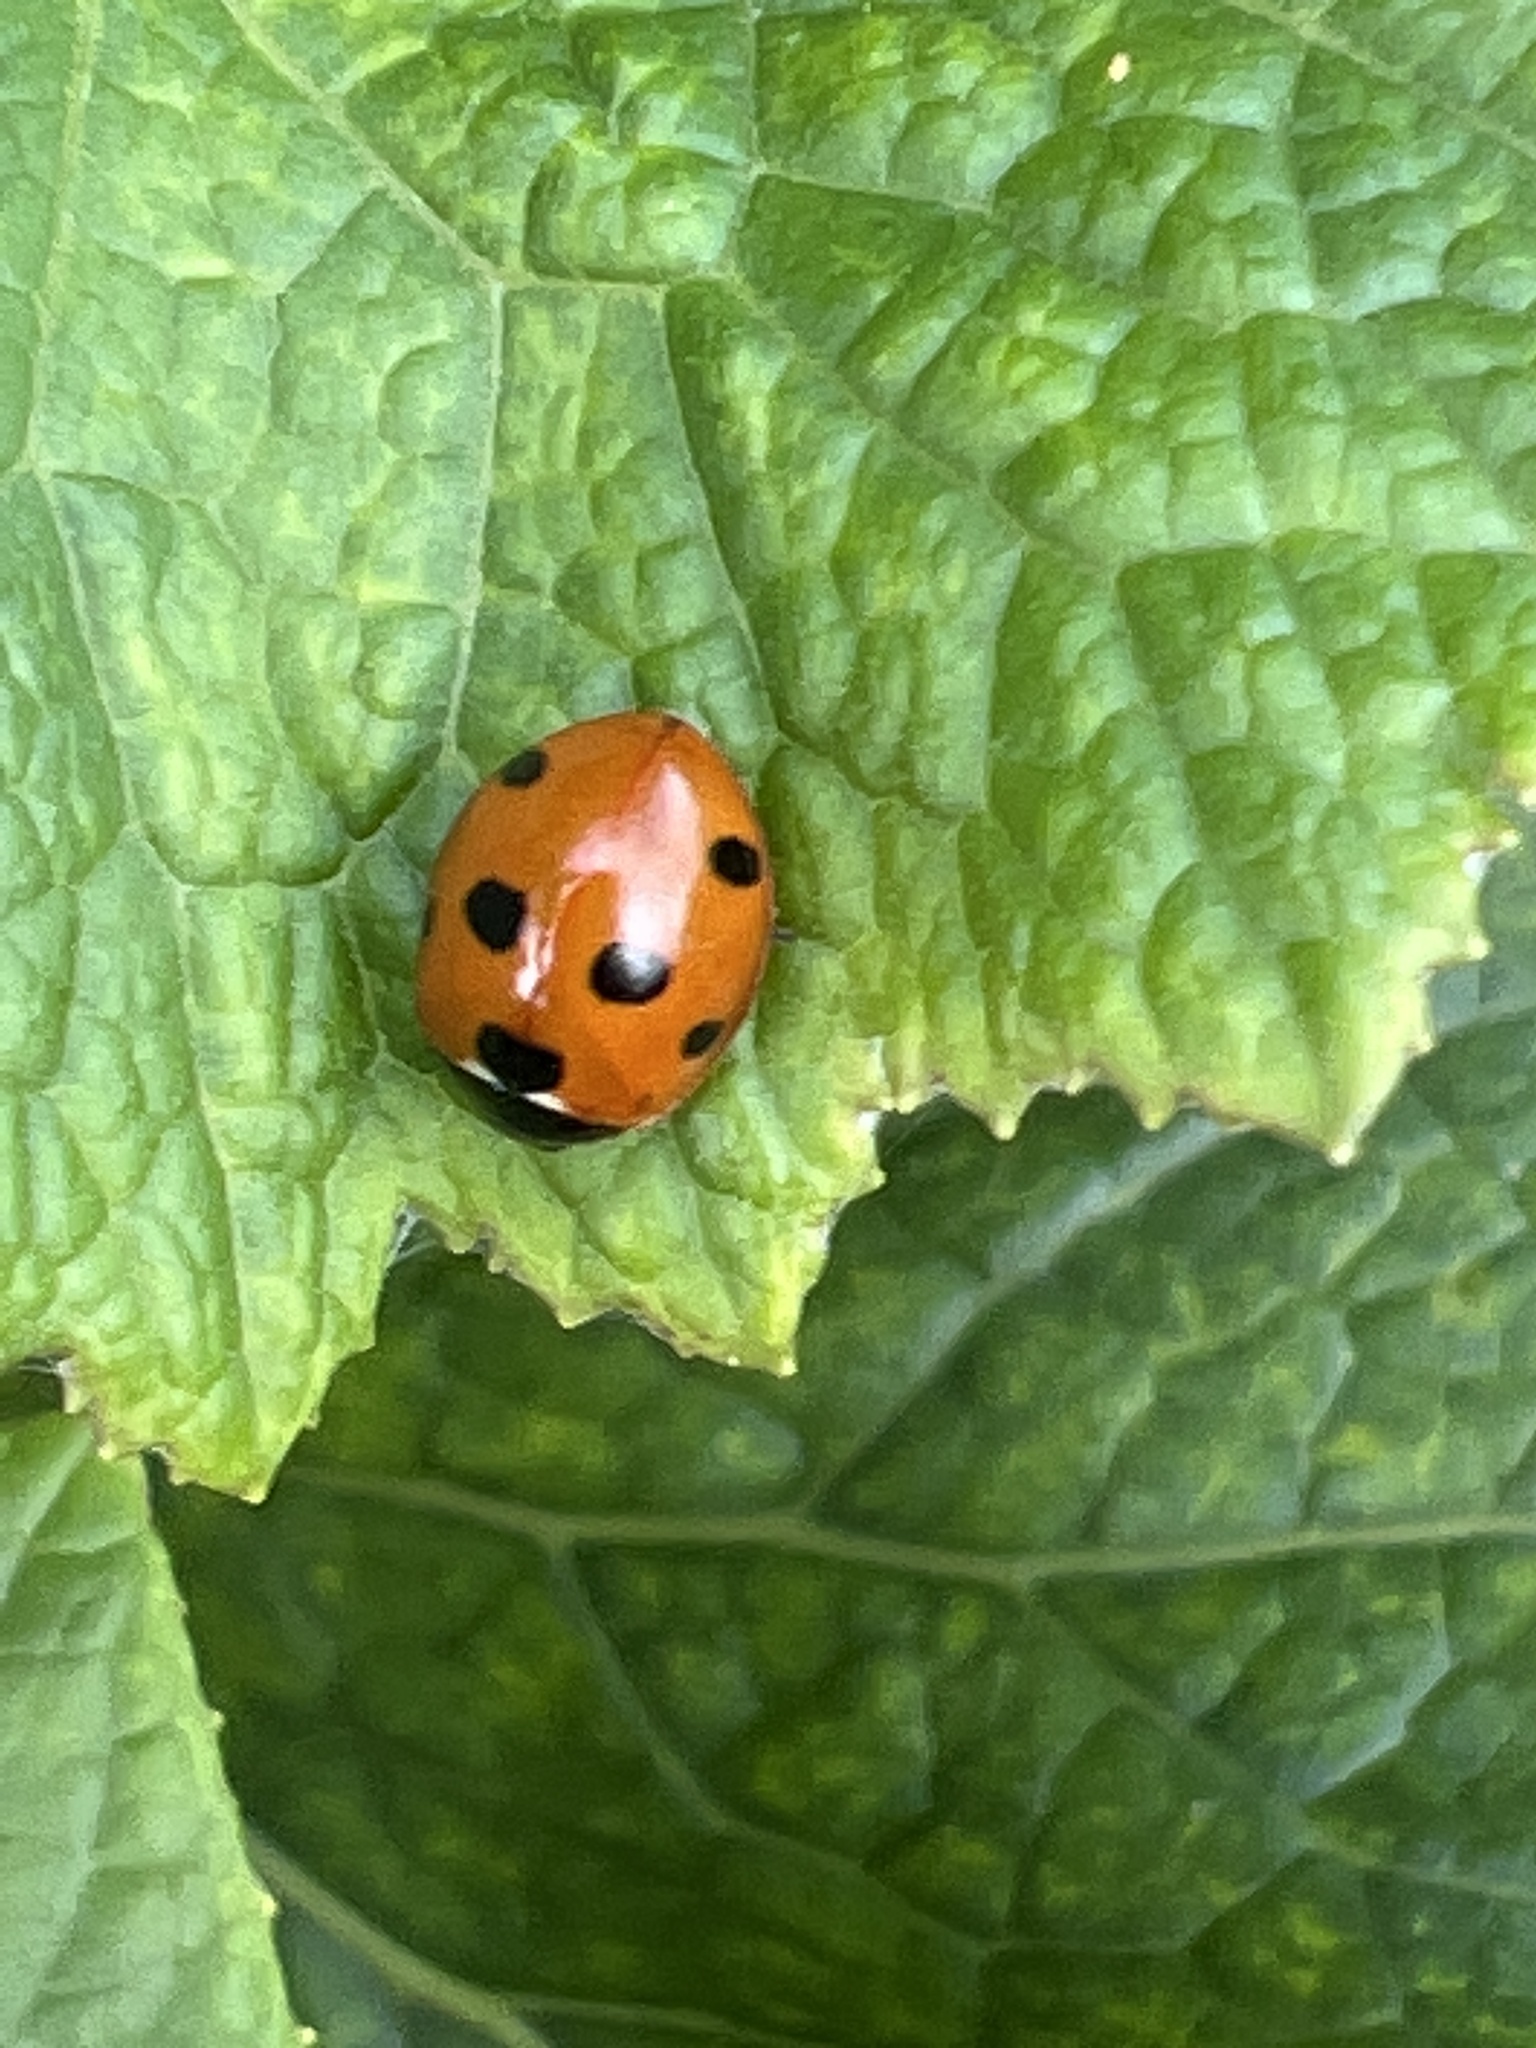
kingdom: Animalia
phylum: Arthropoda
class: Insecta
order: Coleoptera
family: Coccinellidae
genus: Coccinella
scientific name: Coccinella algerica
